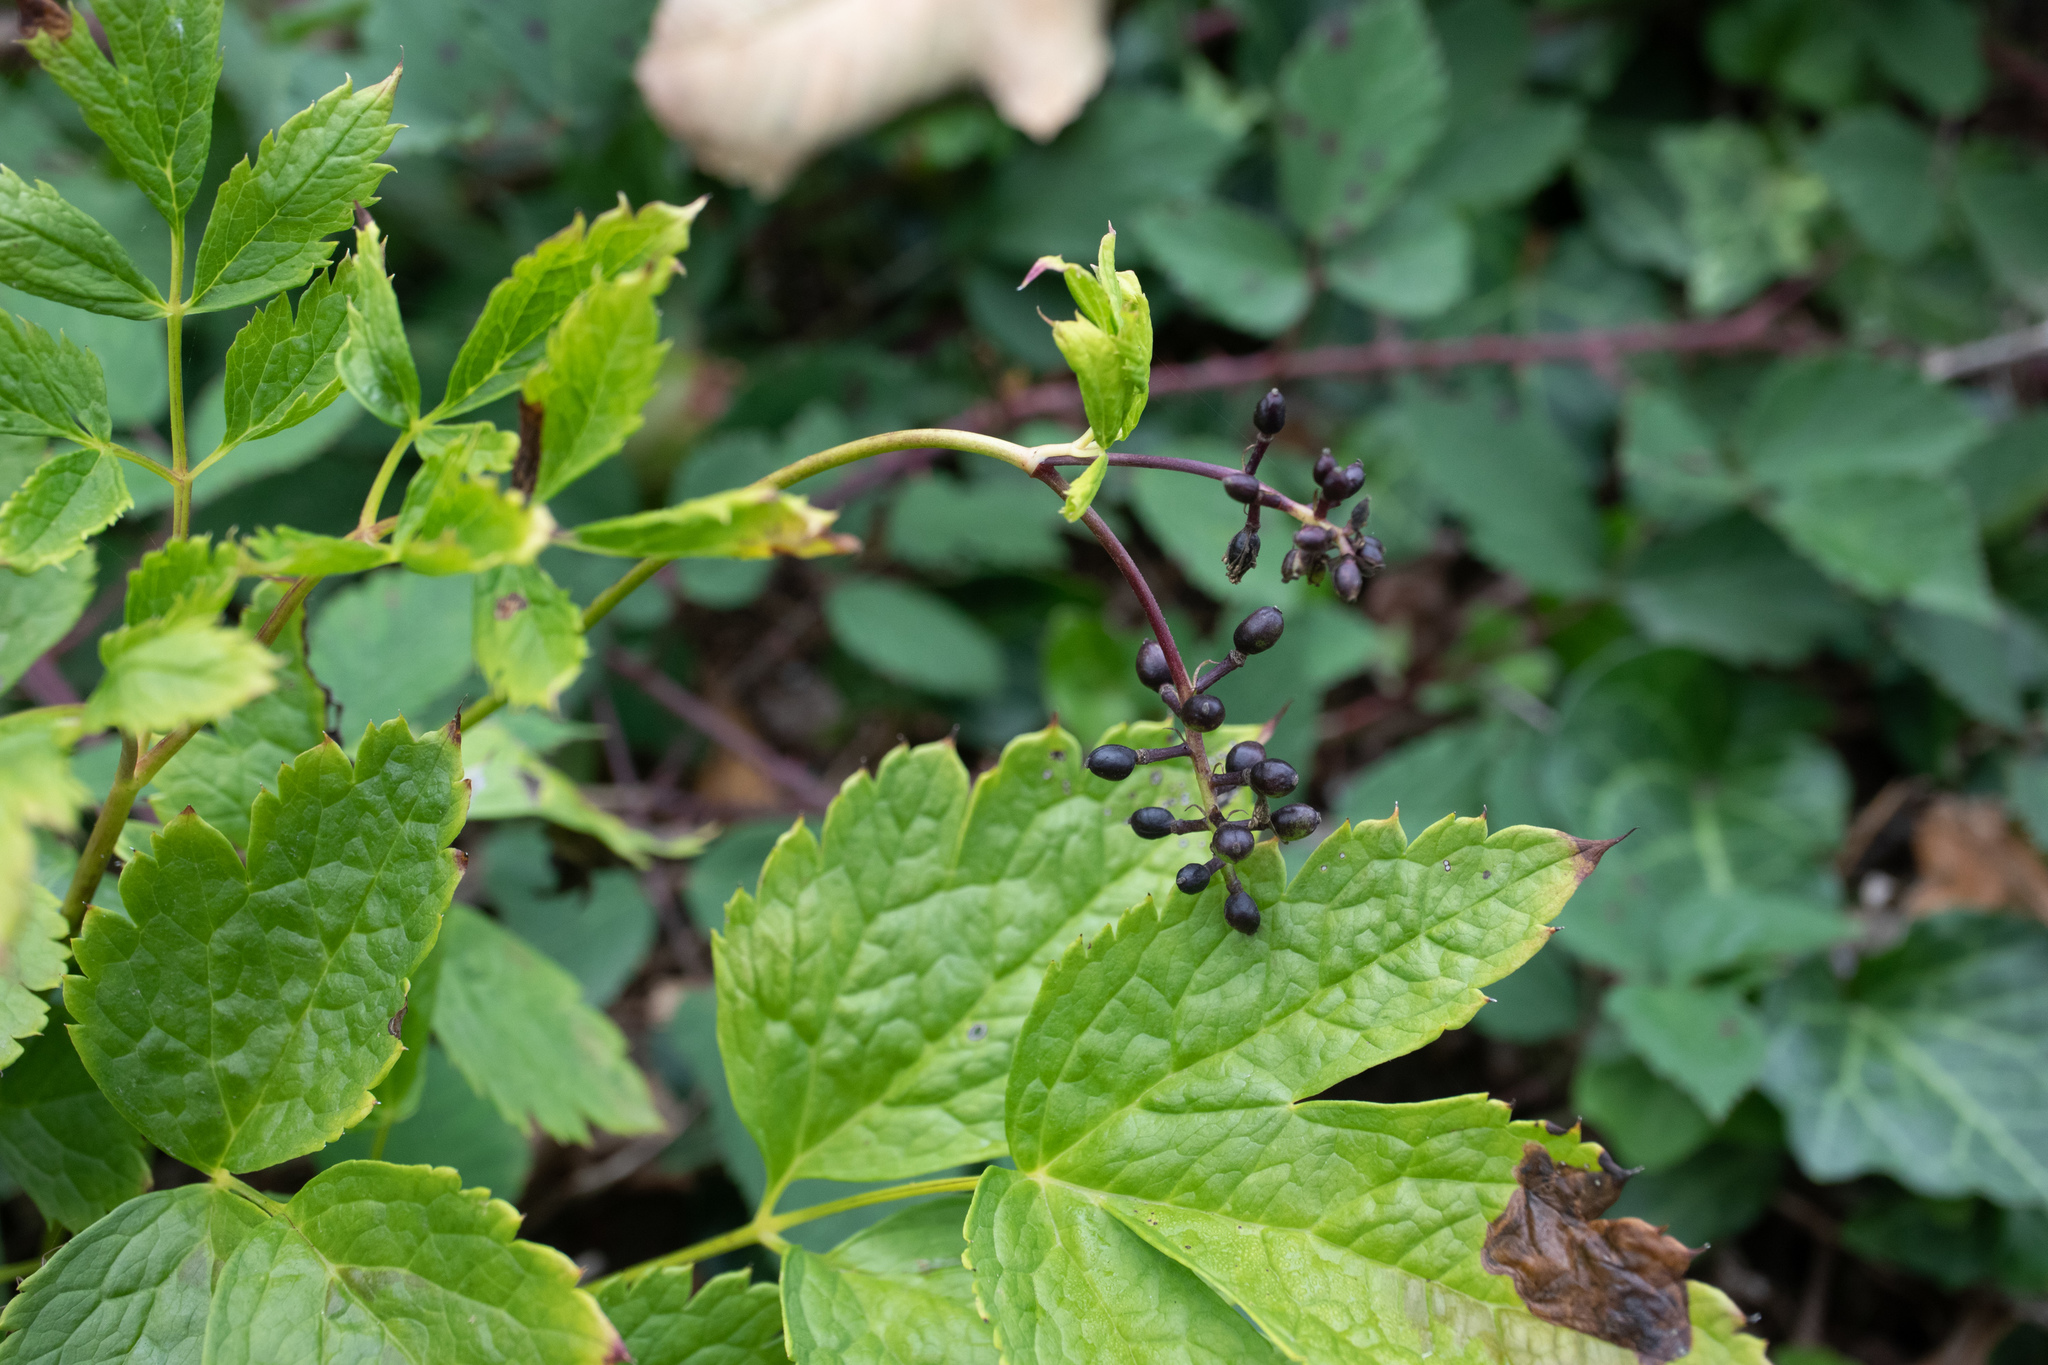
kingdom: Plantae
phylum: Tracheophyta
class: Magnoliopsida
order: Ranunculales
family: Ranunculaceae
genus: Actaea
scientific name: Actaea spicata
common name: Baneberry
